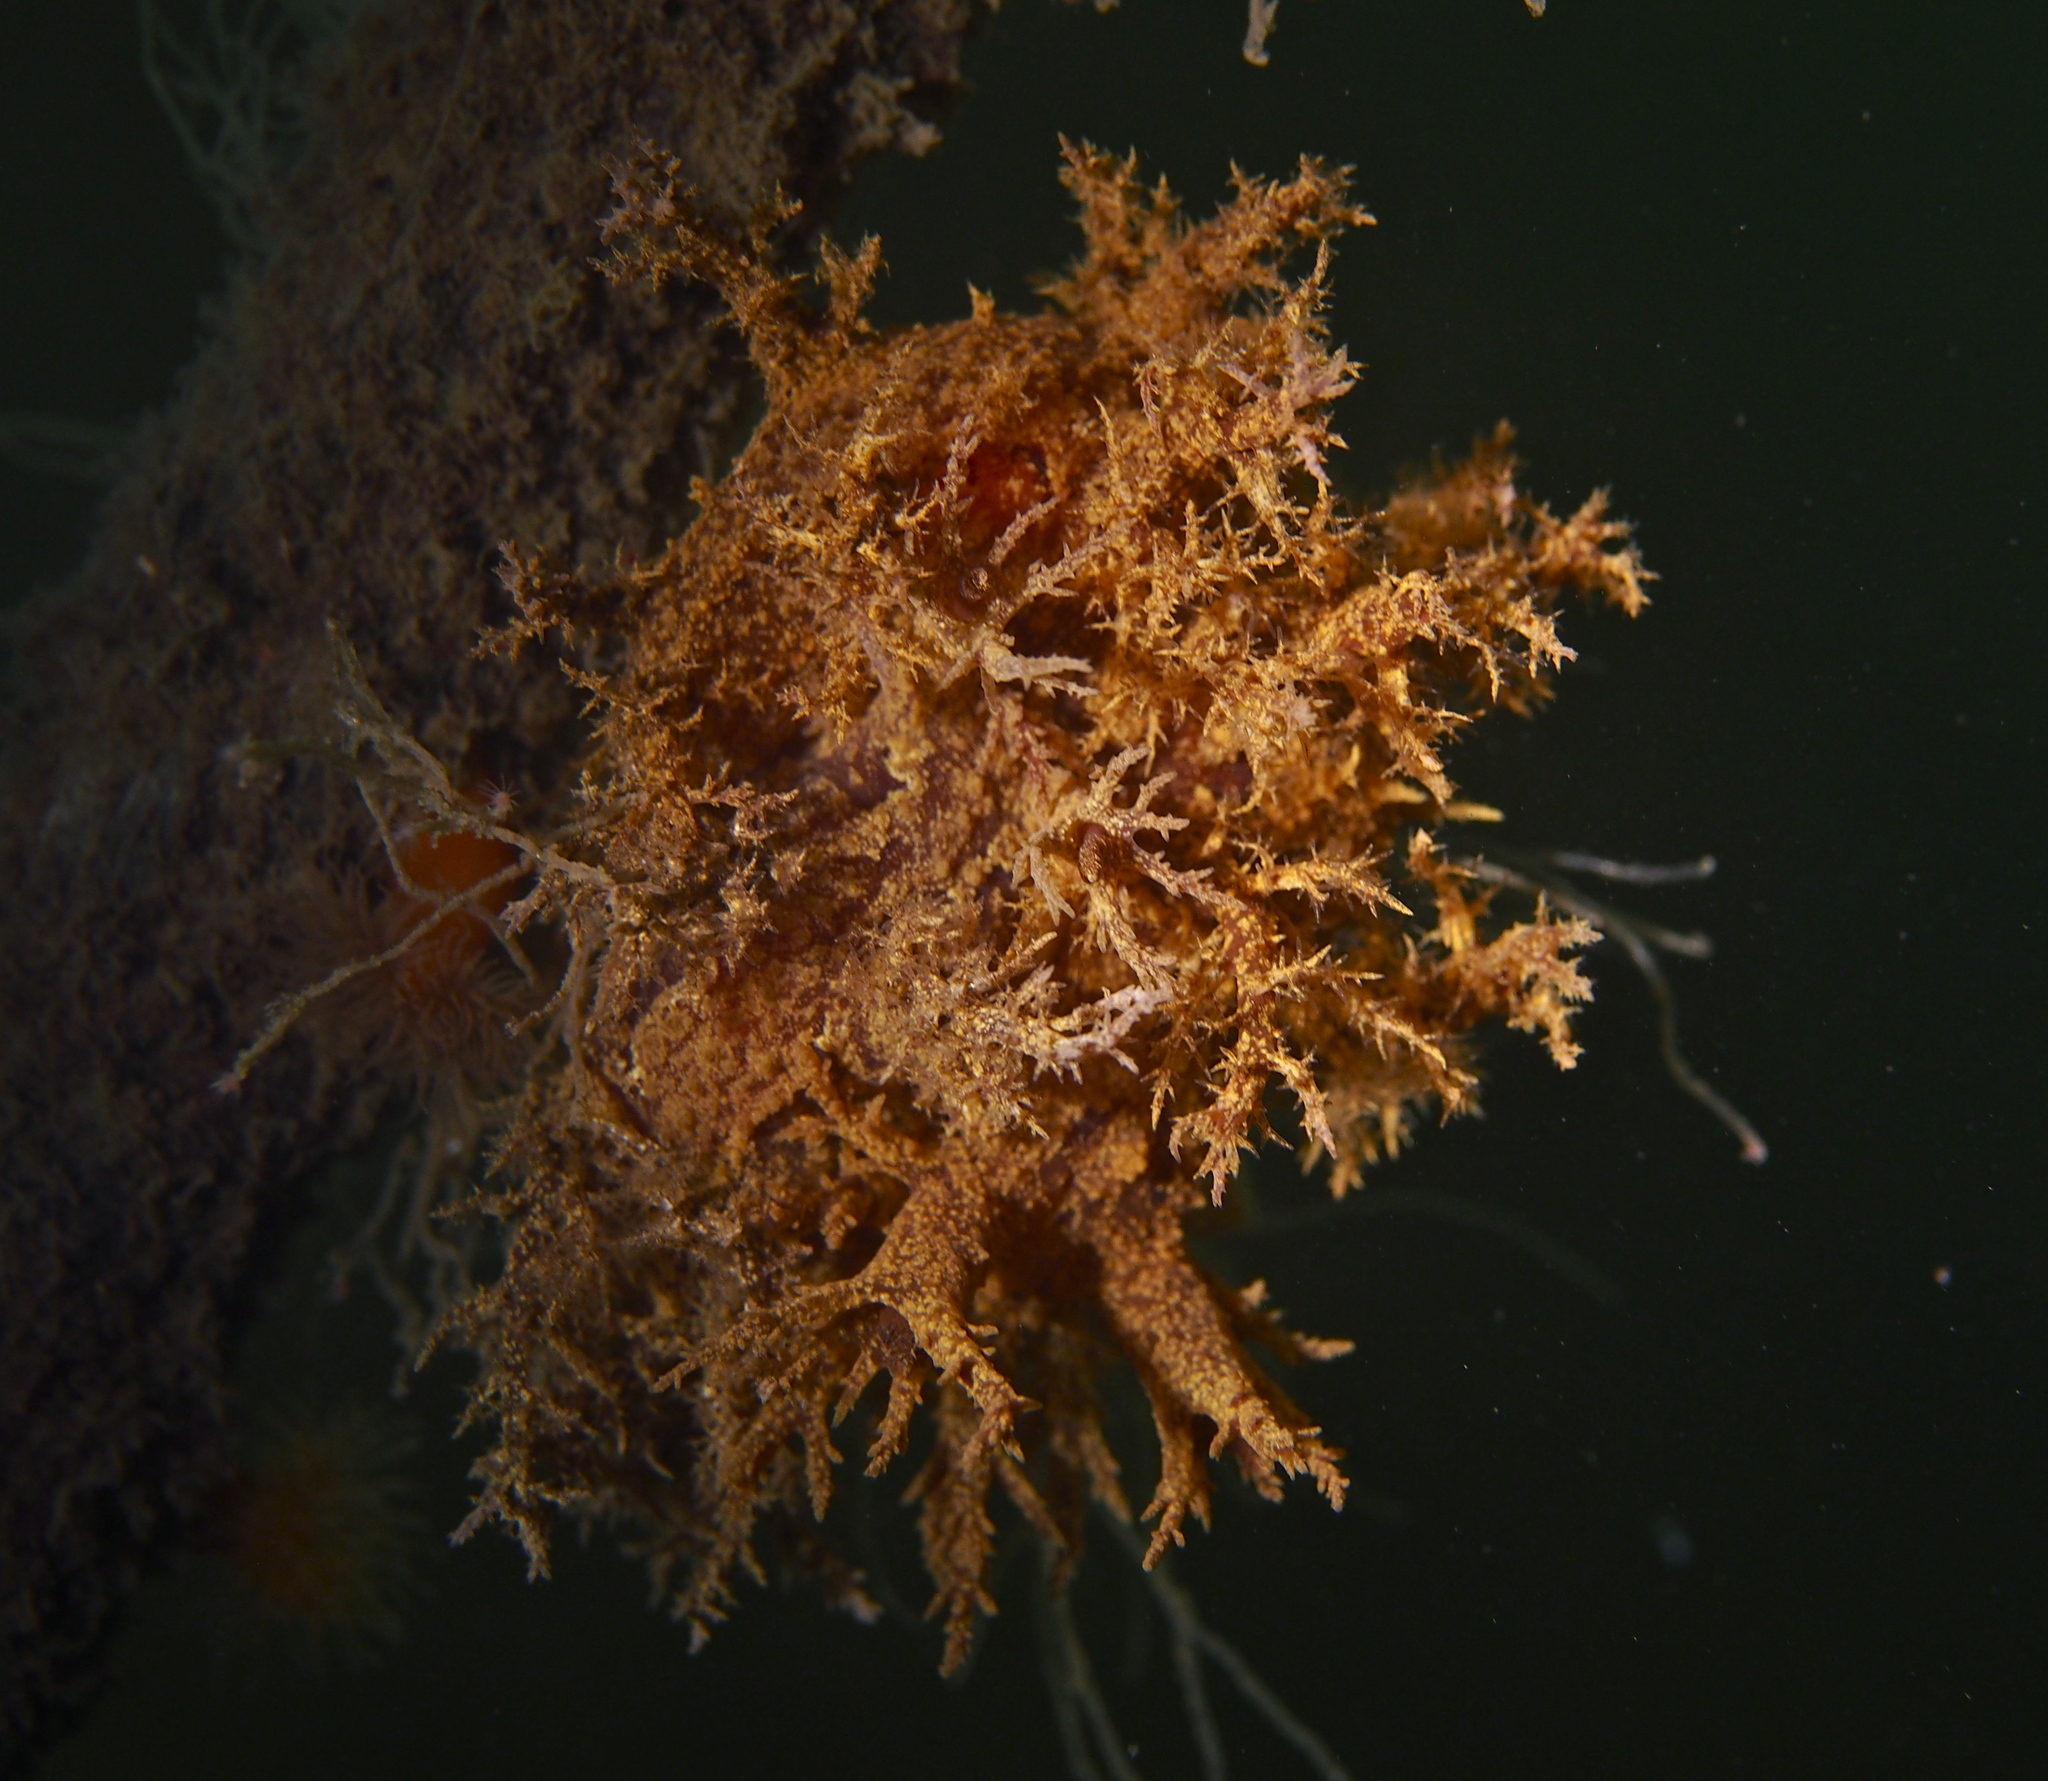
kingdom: Animalia
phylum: Mollusca
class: Gastropoda
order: Nudibranchia
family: Dendronotidae
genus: Dendronotus
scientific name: Dendronotus europaeus
